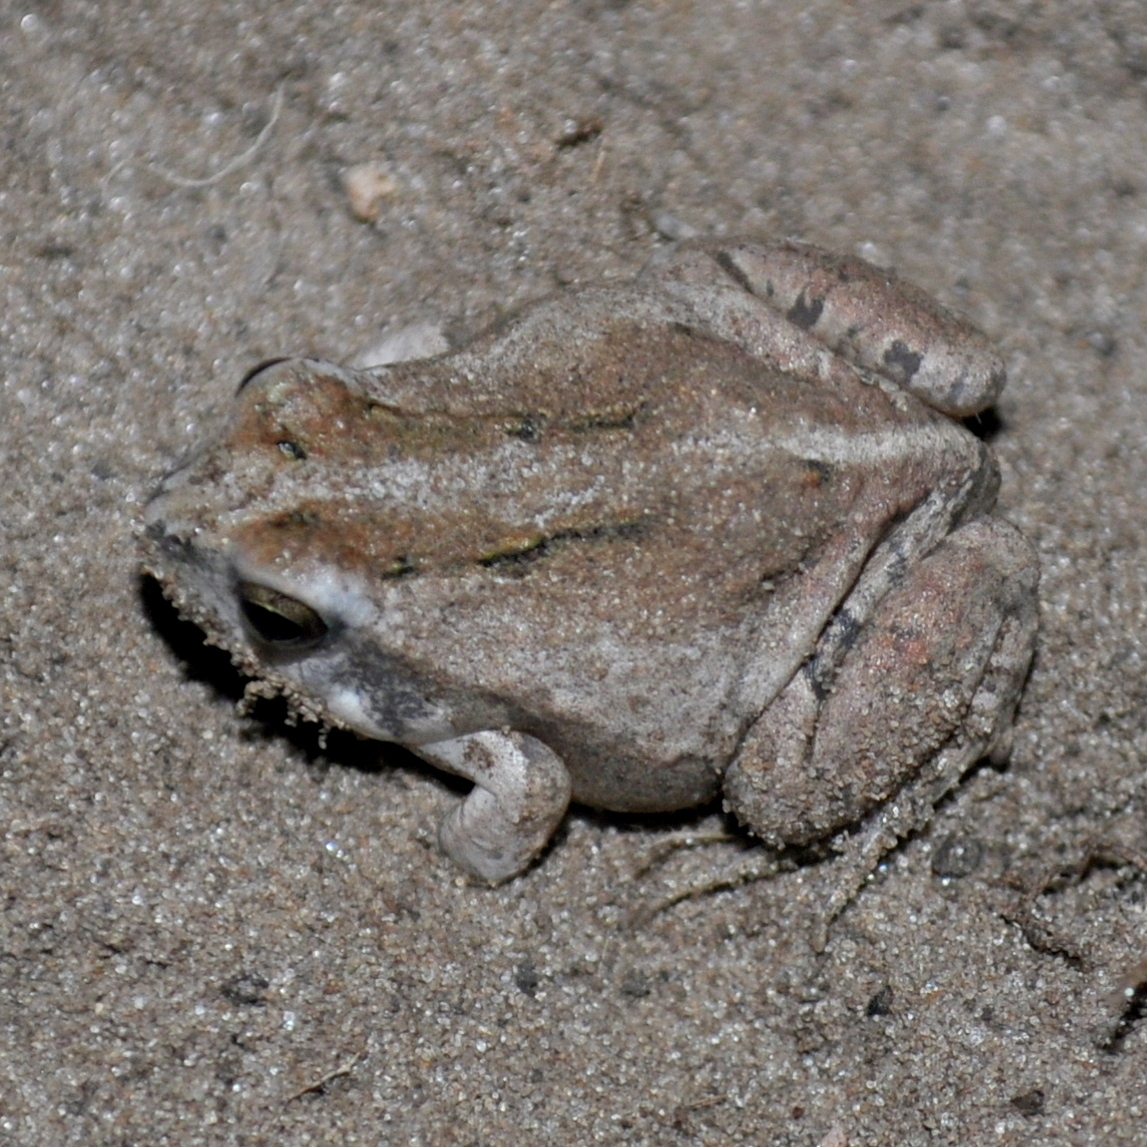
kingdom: Animalia
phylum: Chordata
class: Amphibia
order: Anura
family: Leptodactylidae
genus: Physalaemus
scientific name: Physalaemus biligonigerus
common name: Weeping frog
